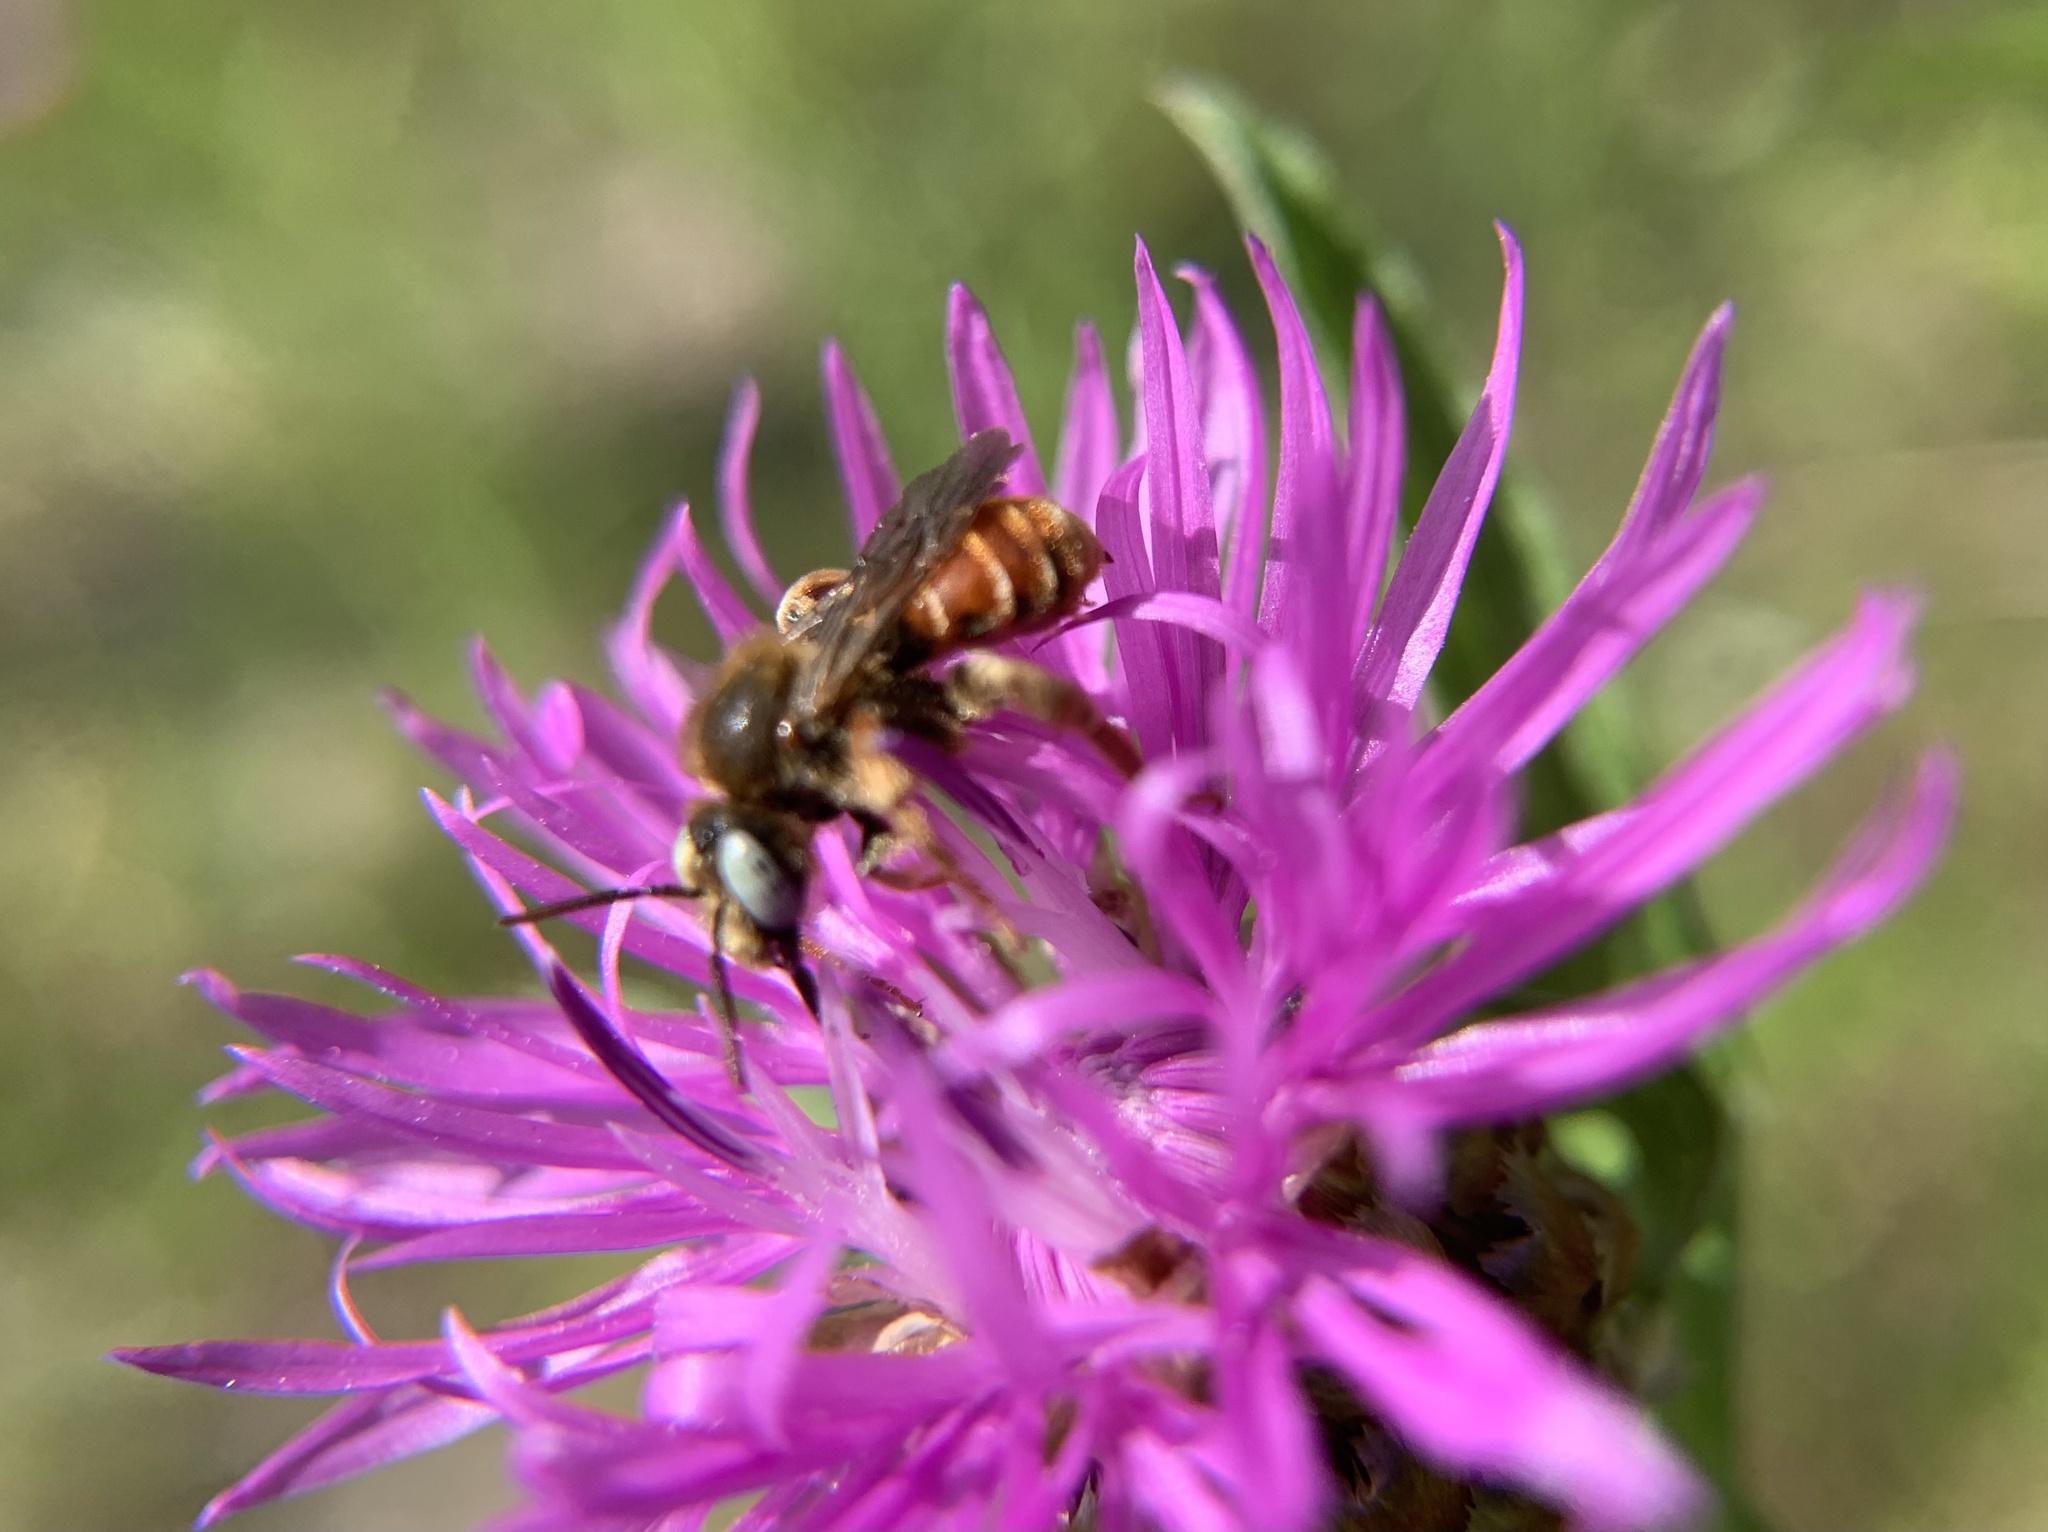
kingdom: Animalia
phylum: Arthropoda
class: Insecta
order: Hymenoptera
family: Apidae
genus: Epeoloides
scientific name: Epeoloides coecutiens
